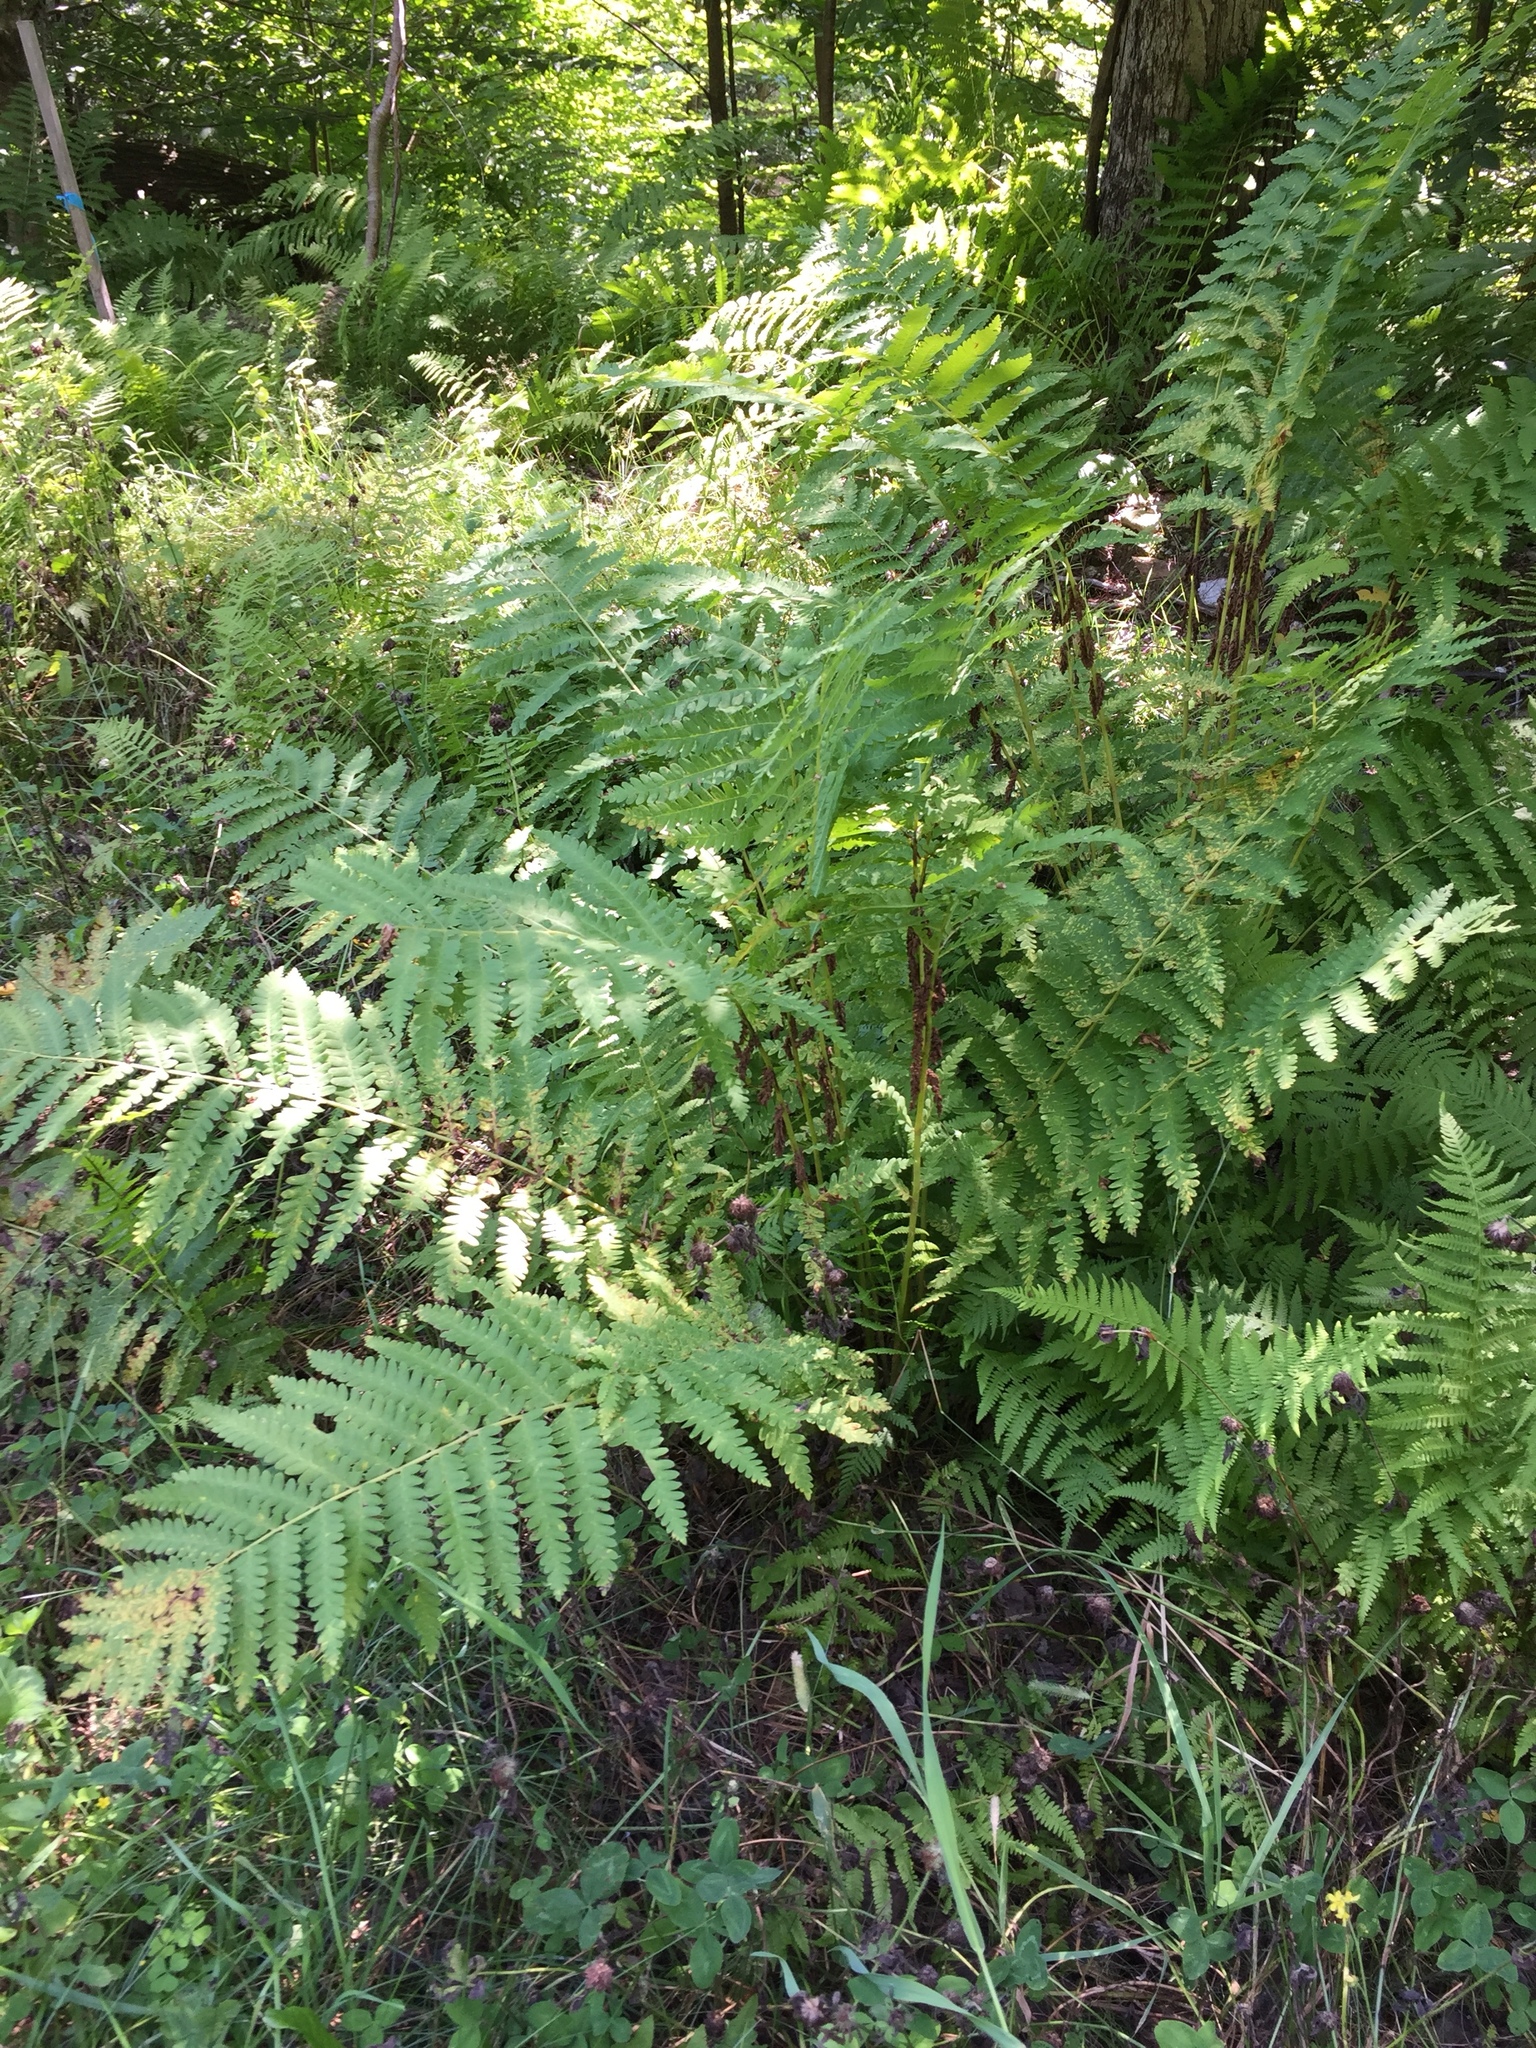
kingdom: Plantae
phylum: Tracheophyta
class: Polypodiopsida
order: Osmundales
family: Osmundaceae
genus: Claytosmunda
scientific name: Claytosmunda claytoniana
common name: Clayton's fern
